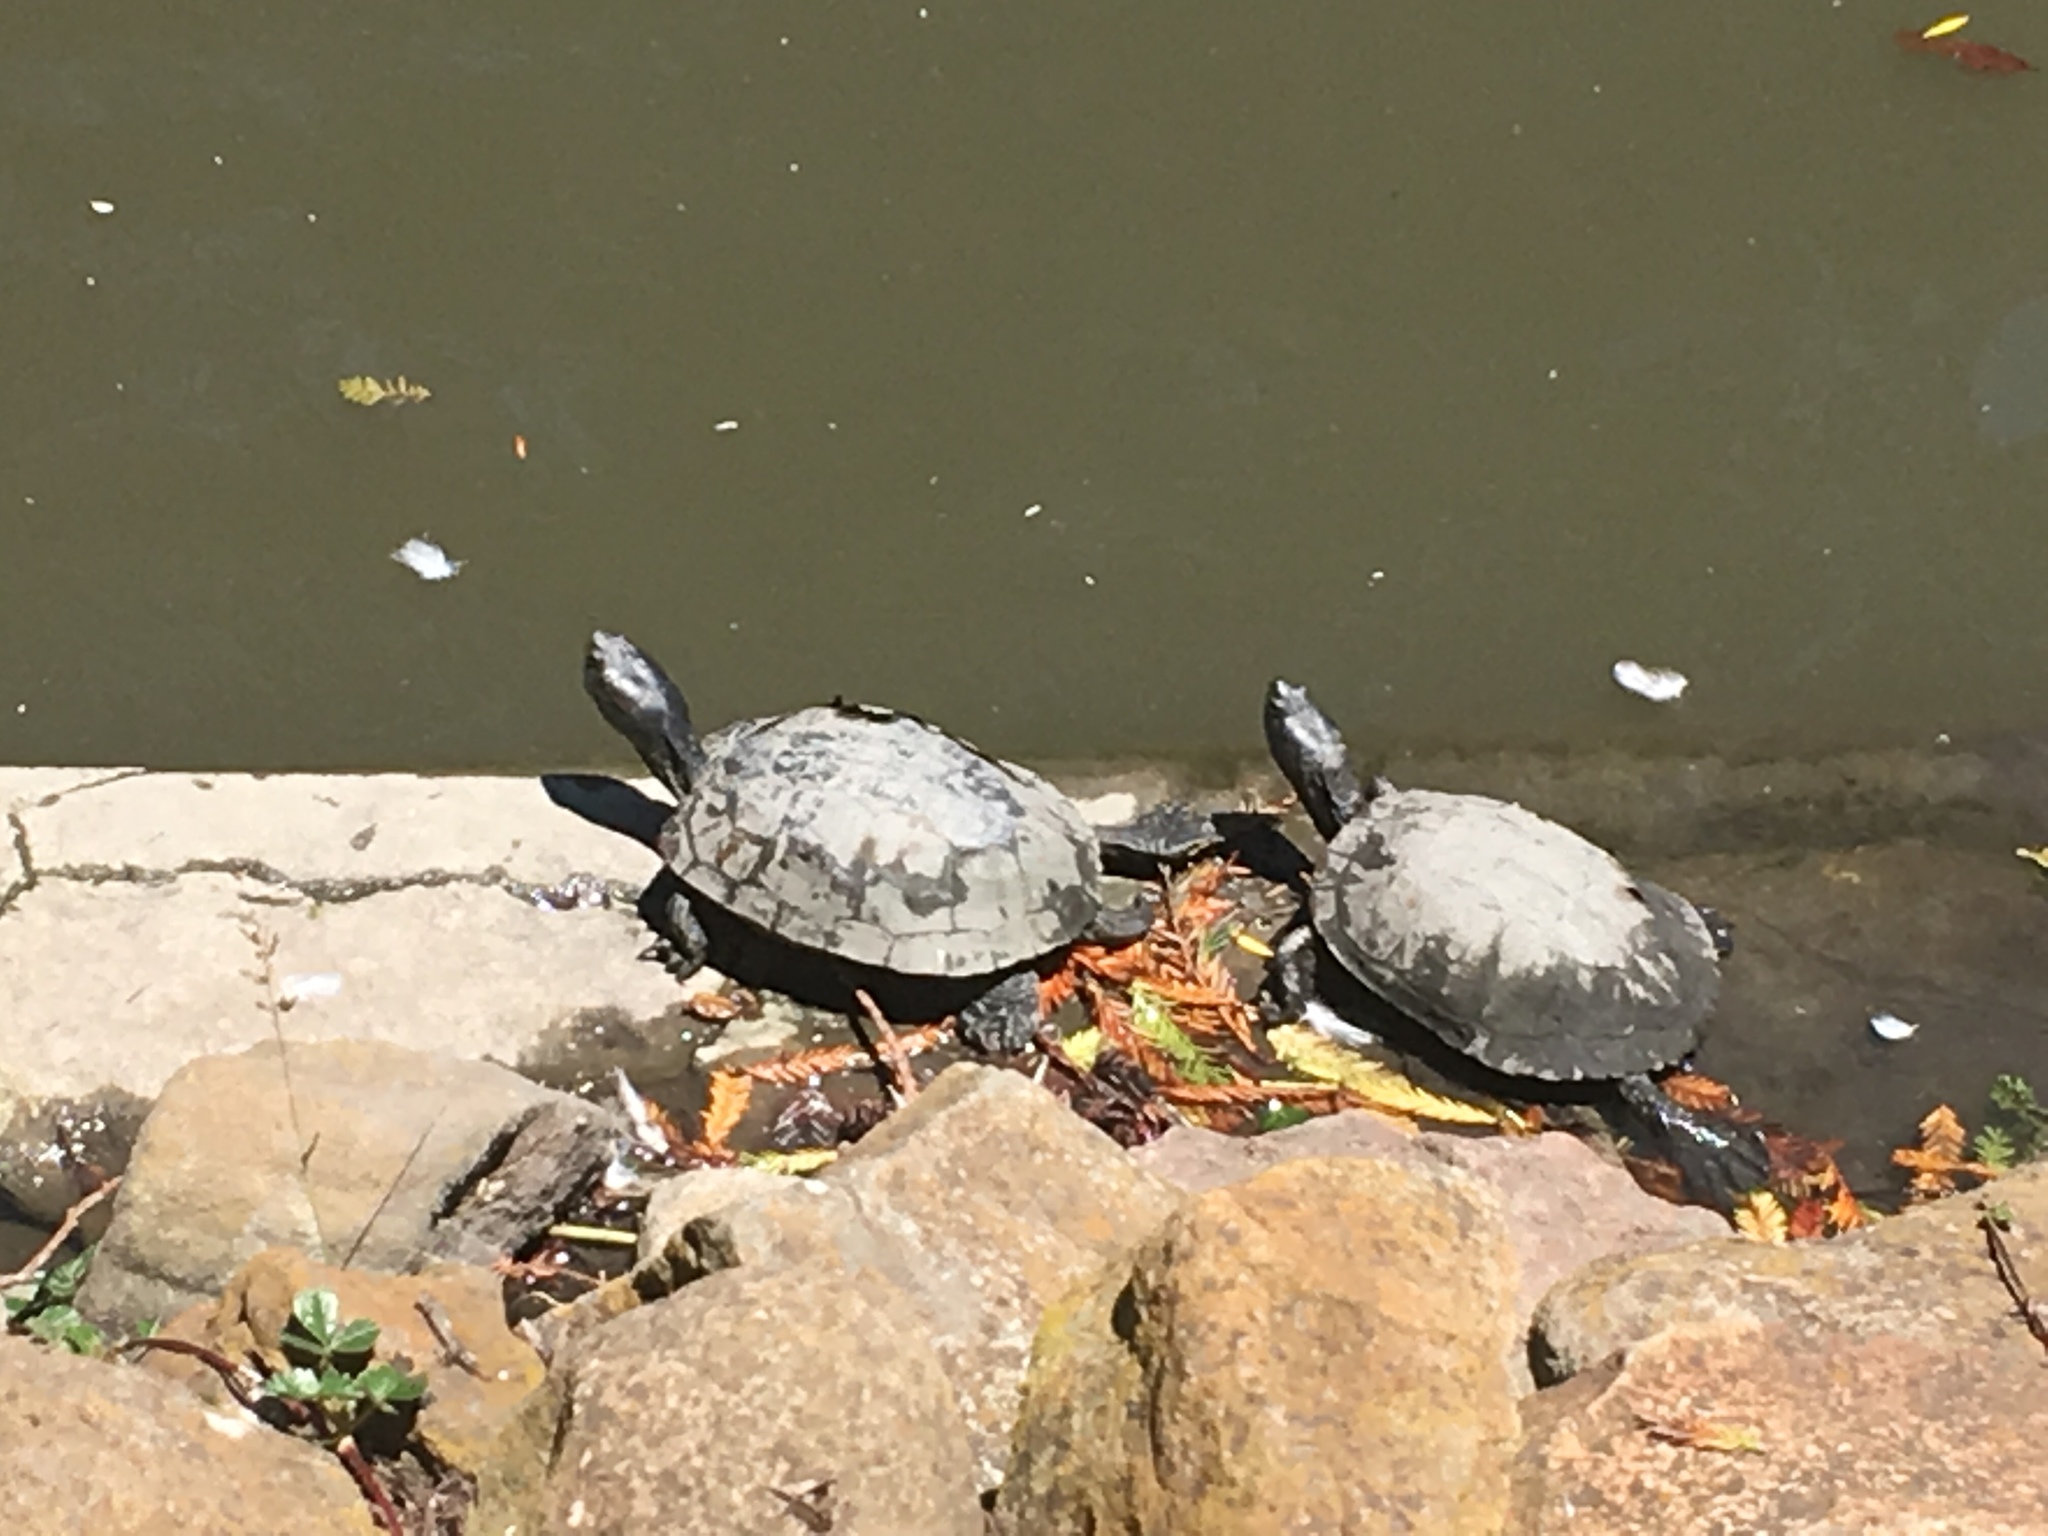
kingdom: Animalia
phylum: Chordata
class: Testudines
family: Emydidae
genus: Trachemys
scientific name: Trachemys scripta
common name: Slider
